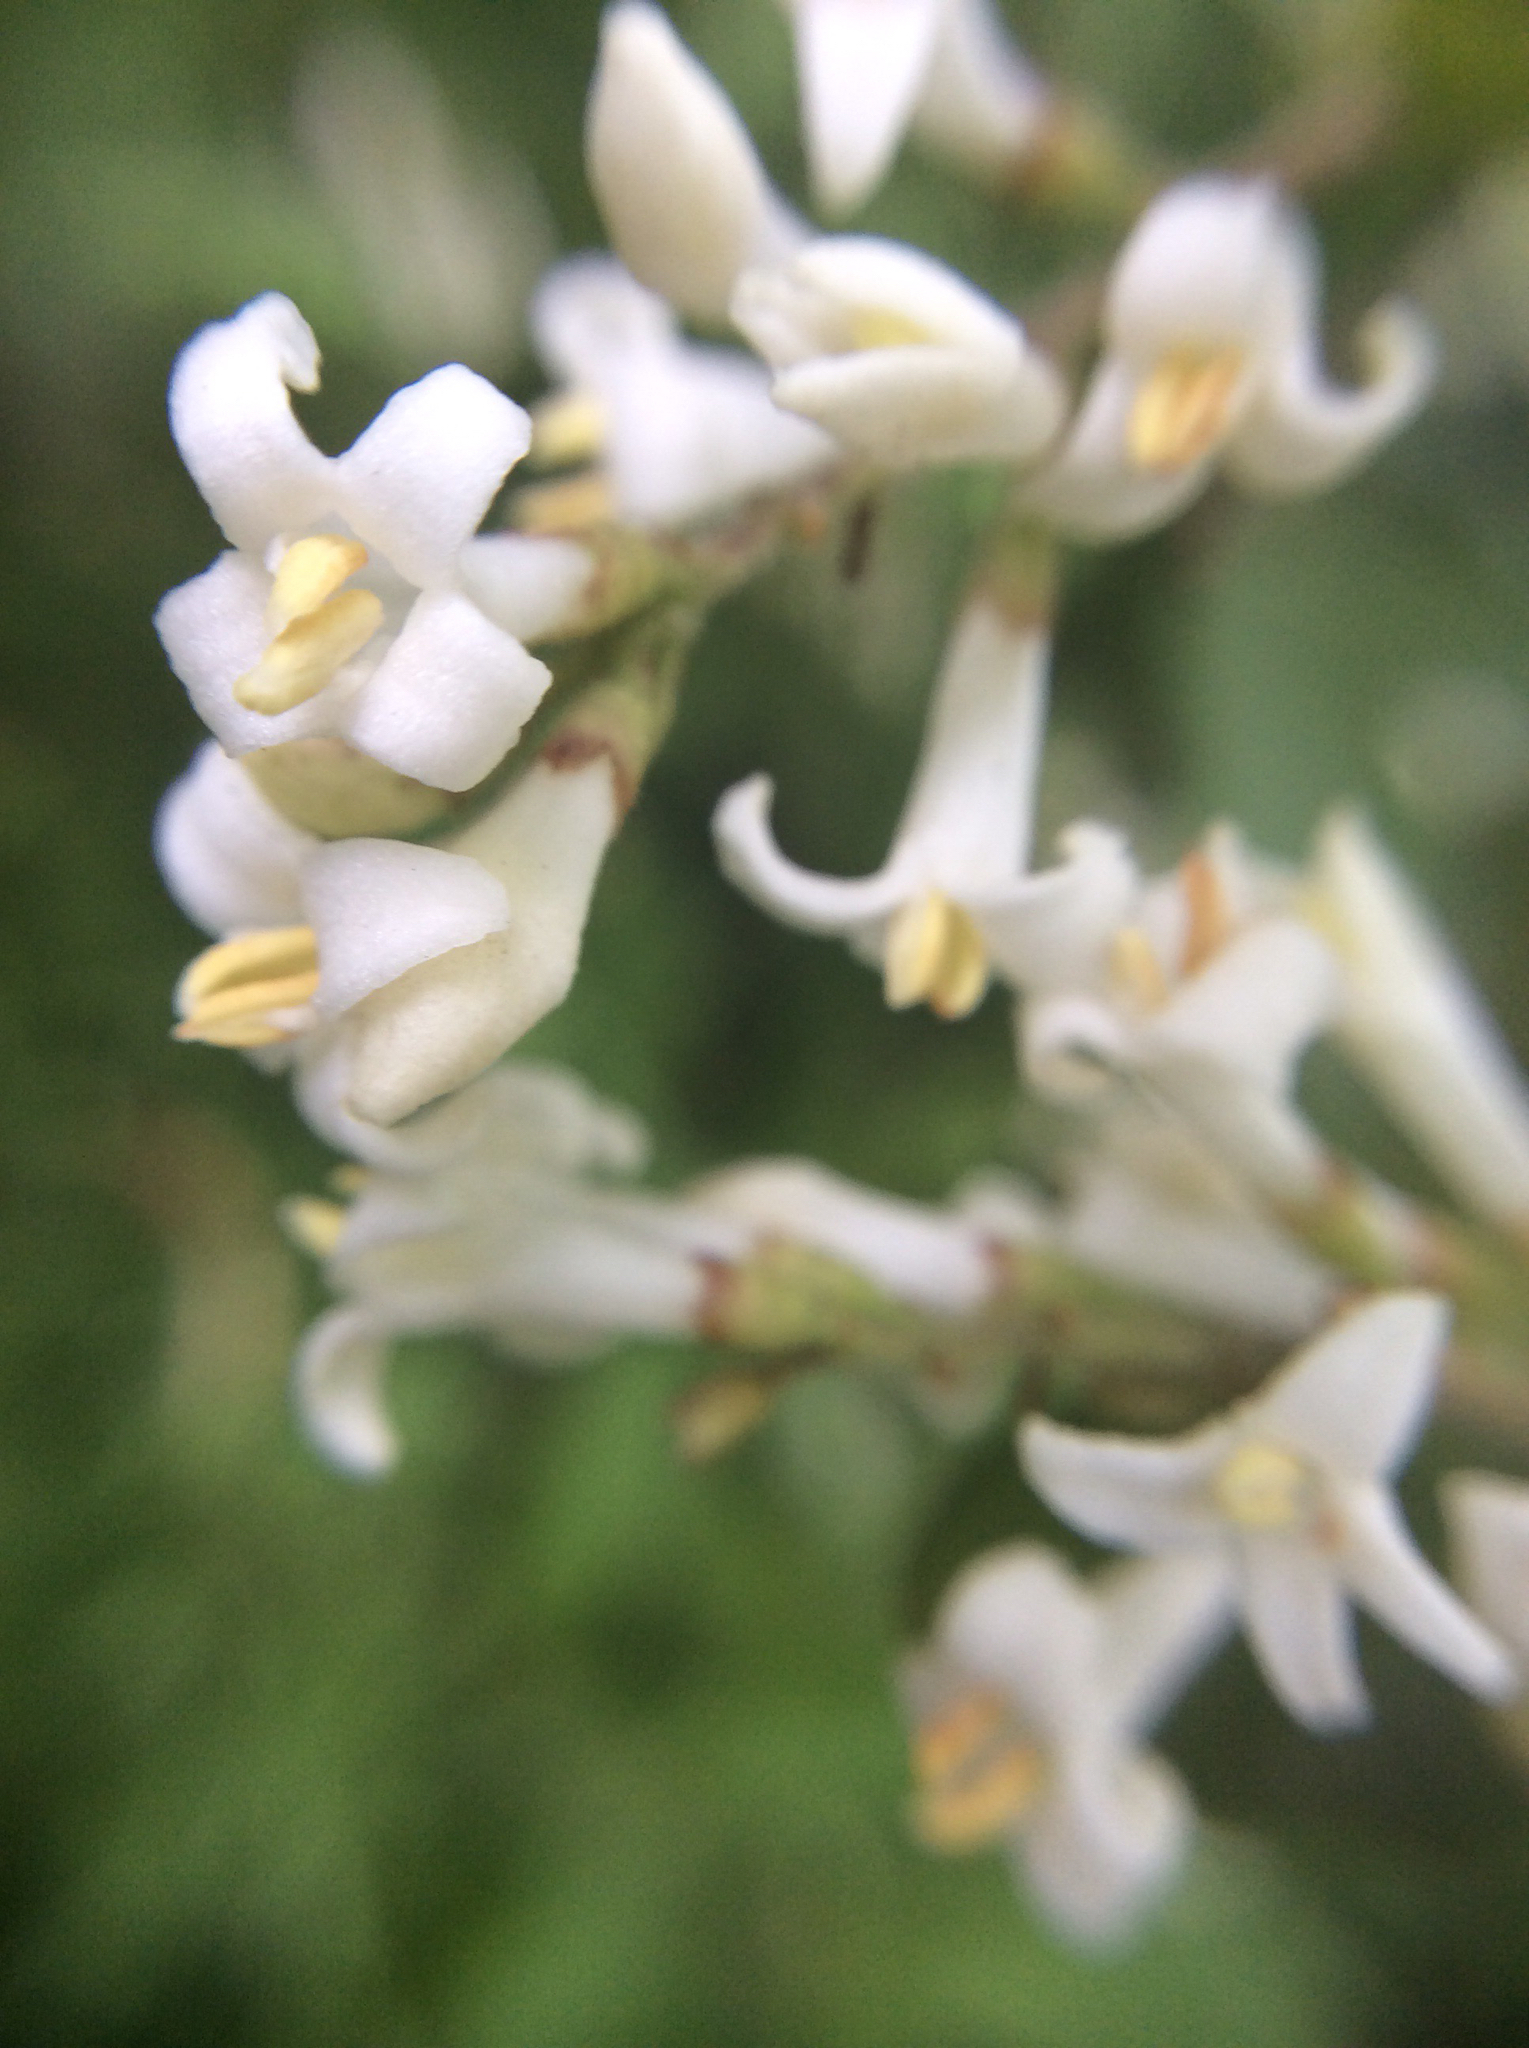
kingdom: Plantae
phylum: Tracheophyta
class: Magnoliopsida
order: Lamiales
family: Oleaceae
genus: Ligustrum
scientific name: Ligustrum obtusifolium
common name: Border privet
